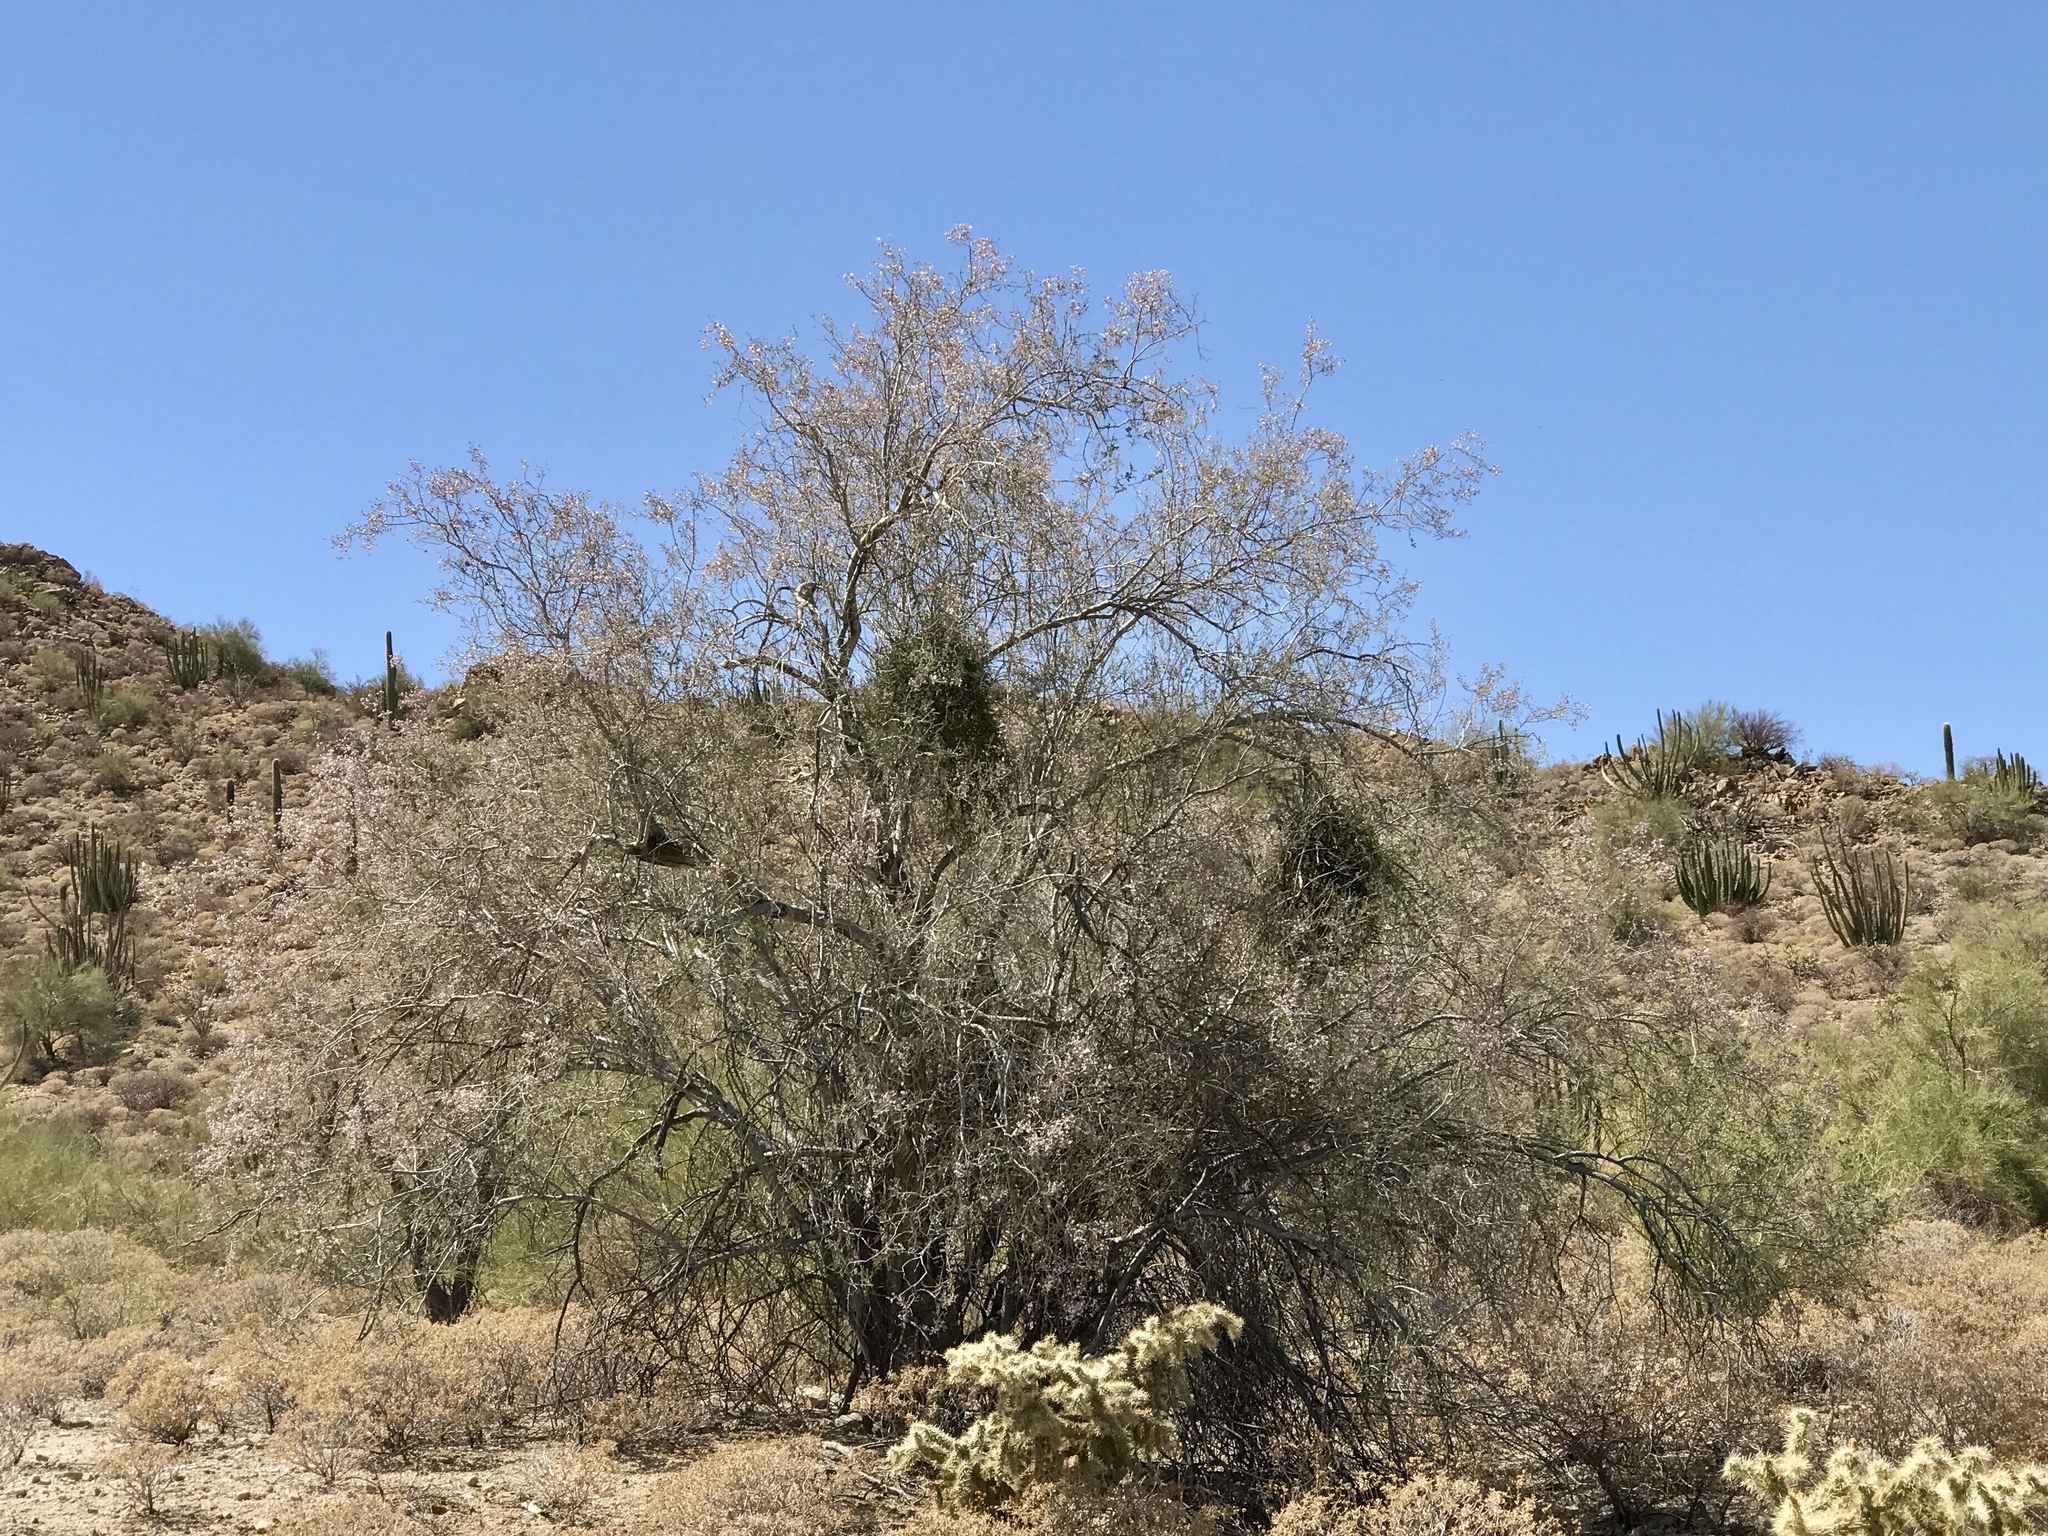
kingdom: Plantae
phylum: Tracheophyta
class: Magnoliopsida
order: Fabales
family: Fabaceae
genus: Olneya
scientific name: Olneya tesota
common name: Desert ironwood
